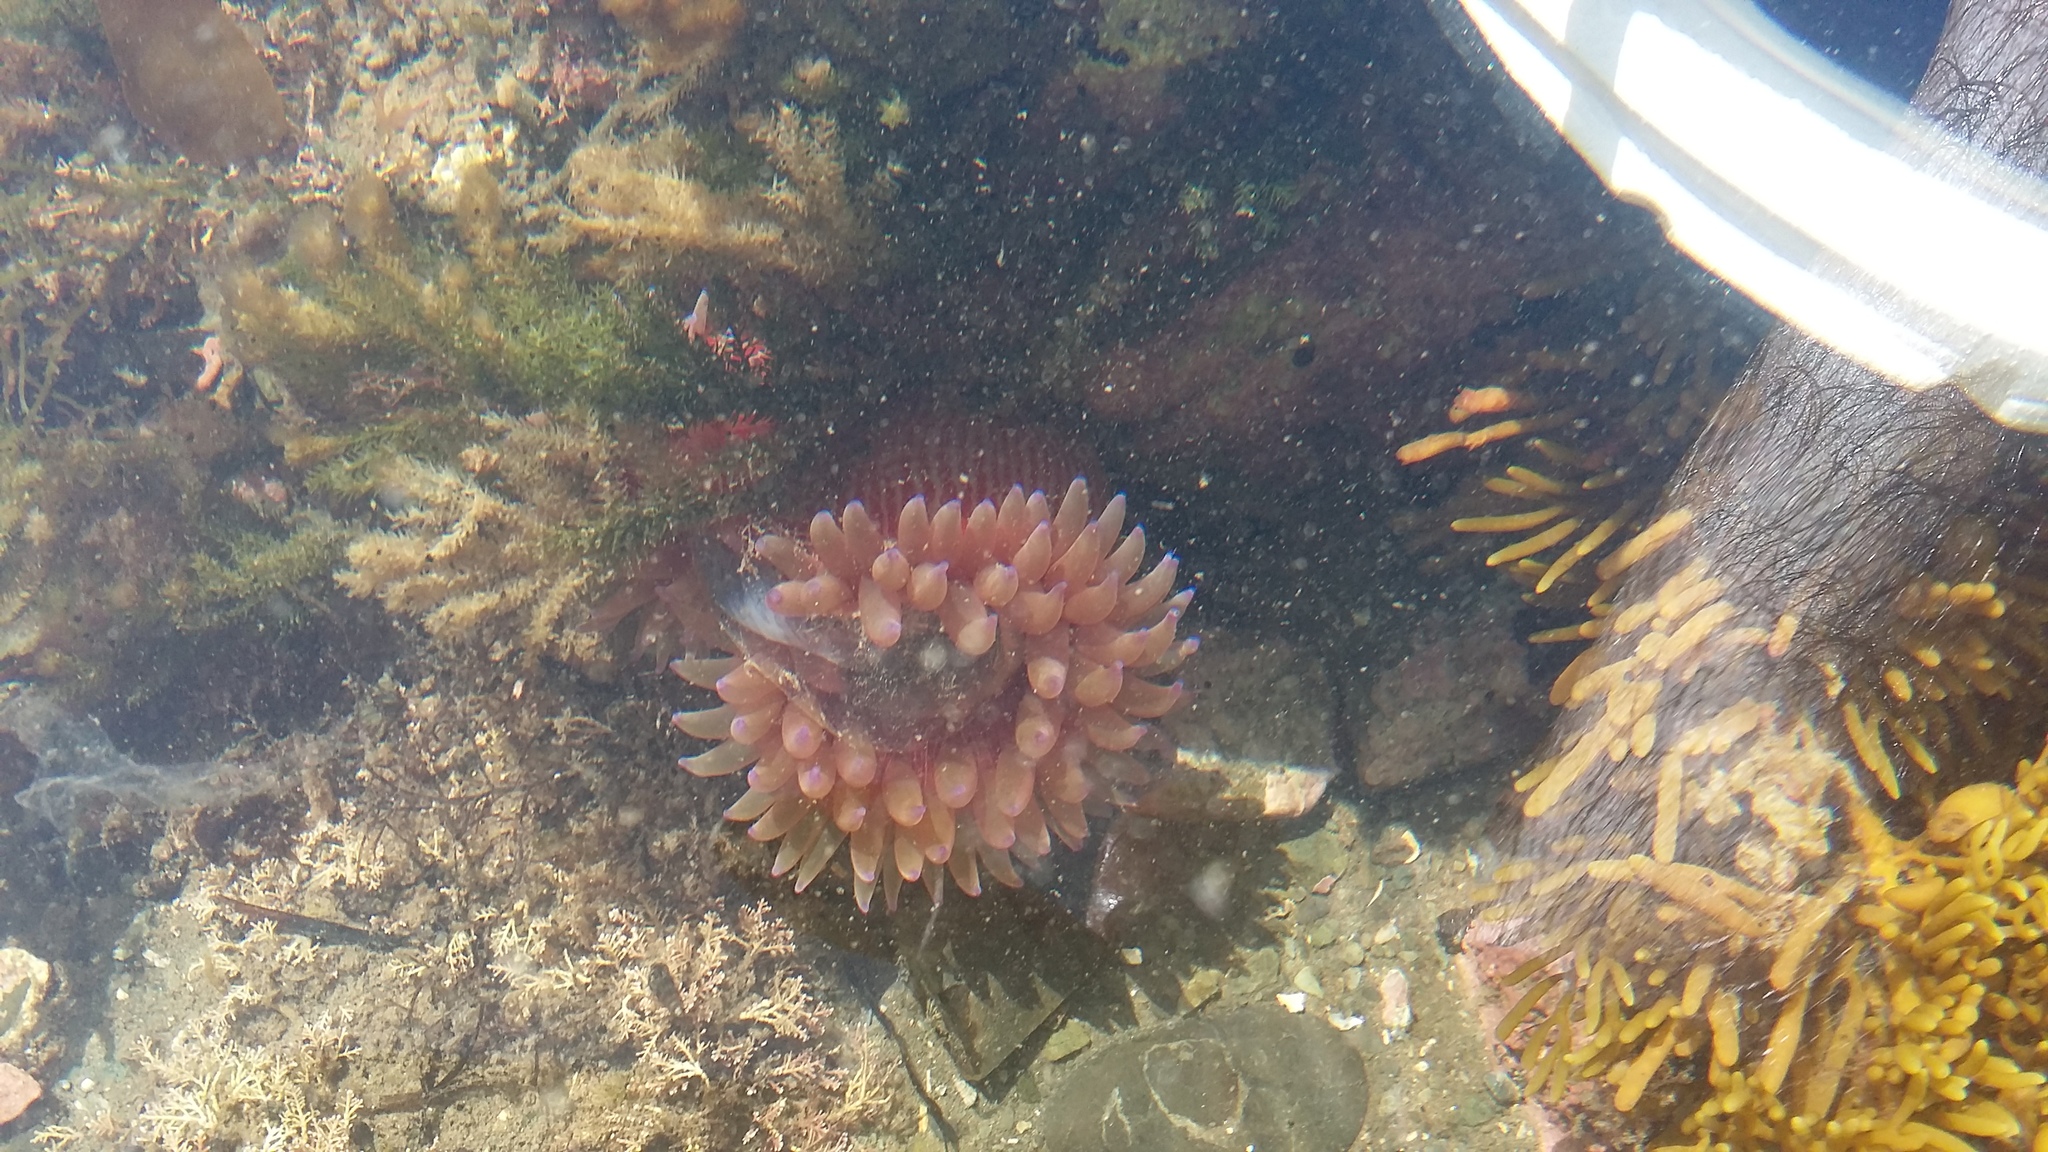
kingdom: Animalia
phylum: Cnidaria
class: Anthozoa
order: Actiniaria
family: Actiniidae
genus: Epiactis
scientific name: Epiactis thompsoni
